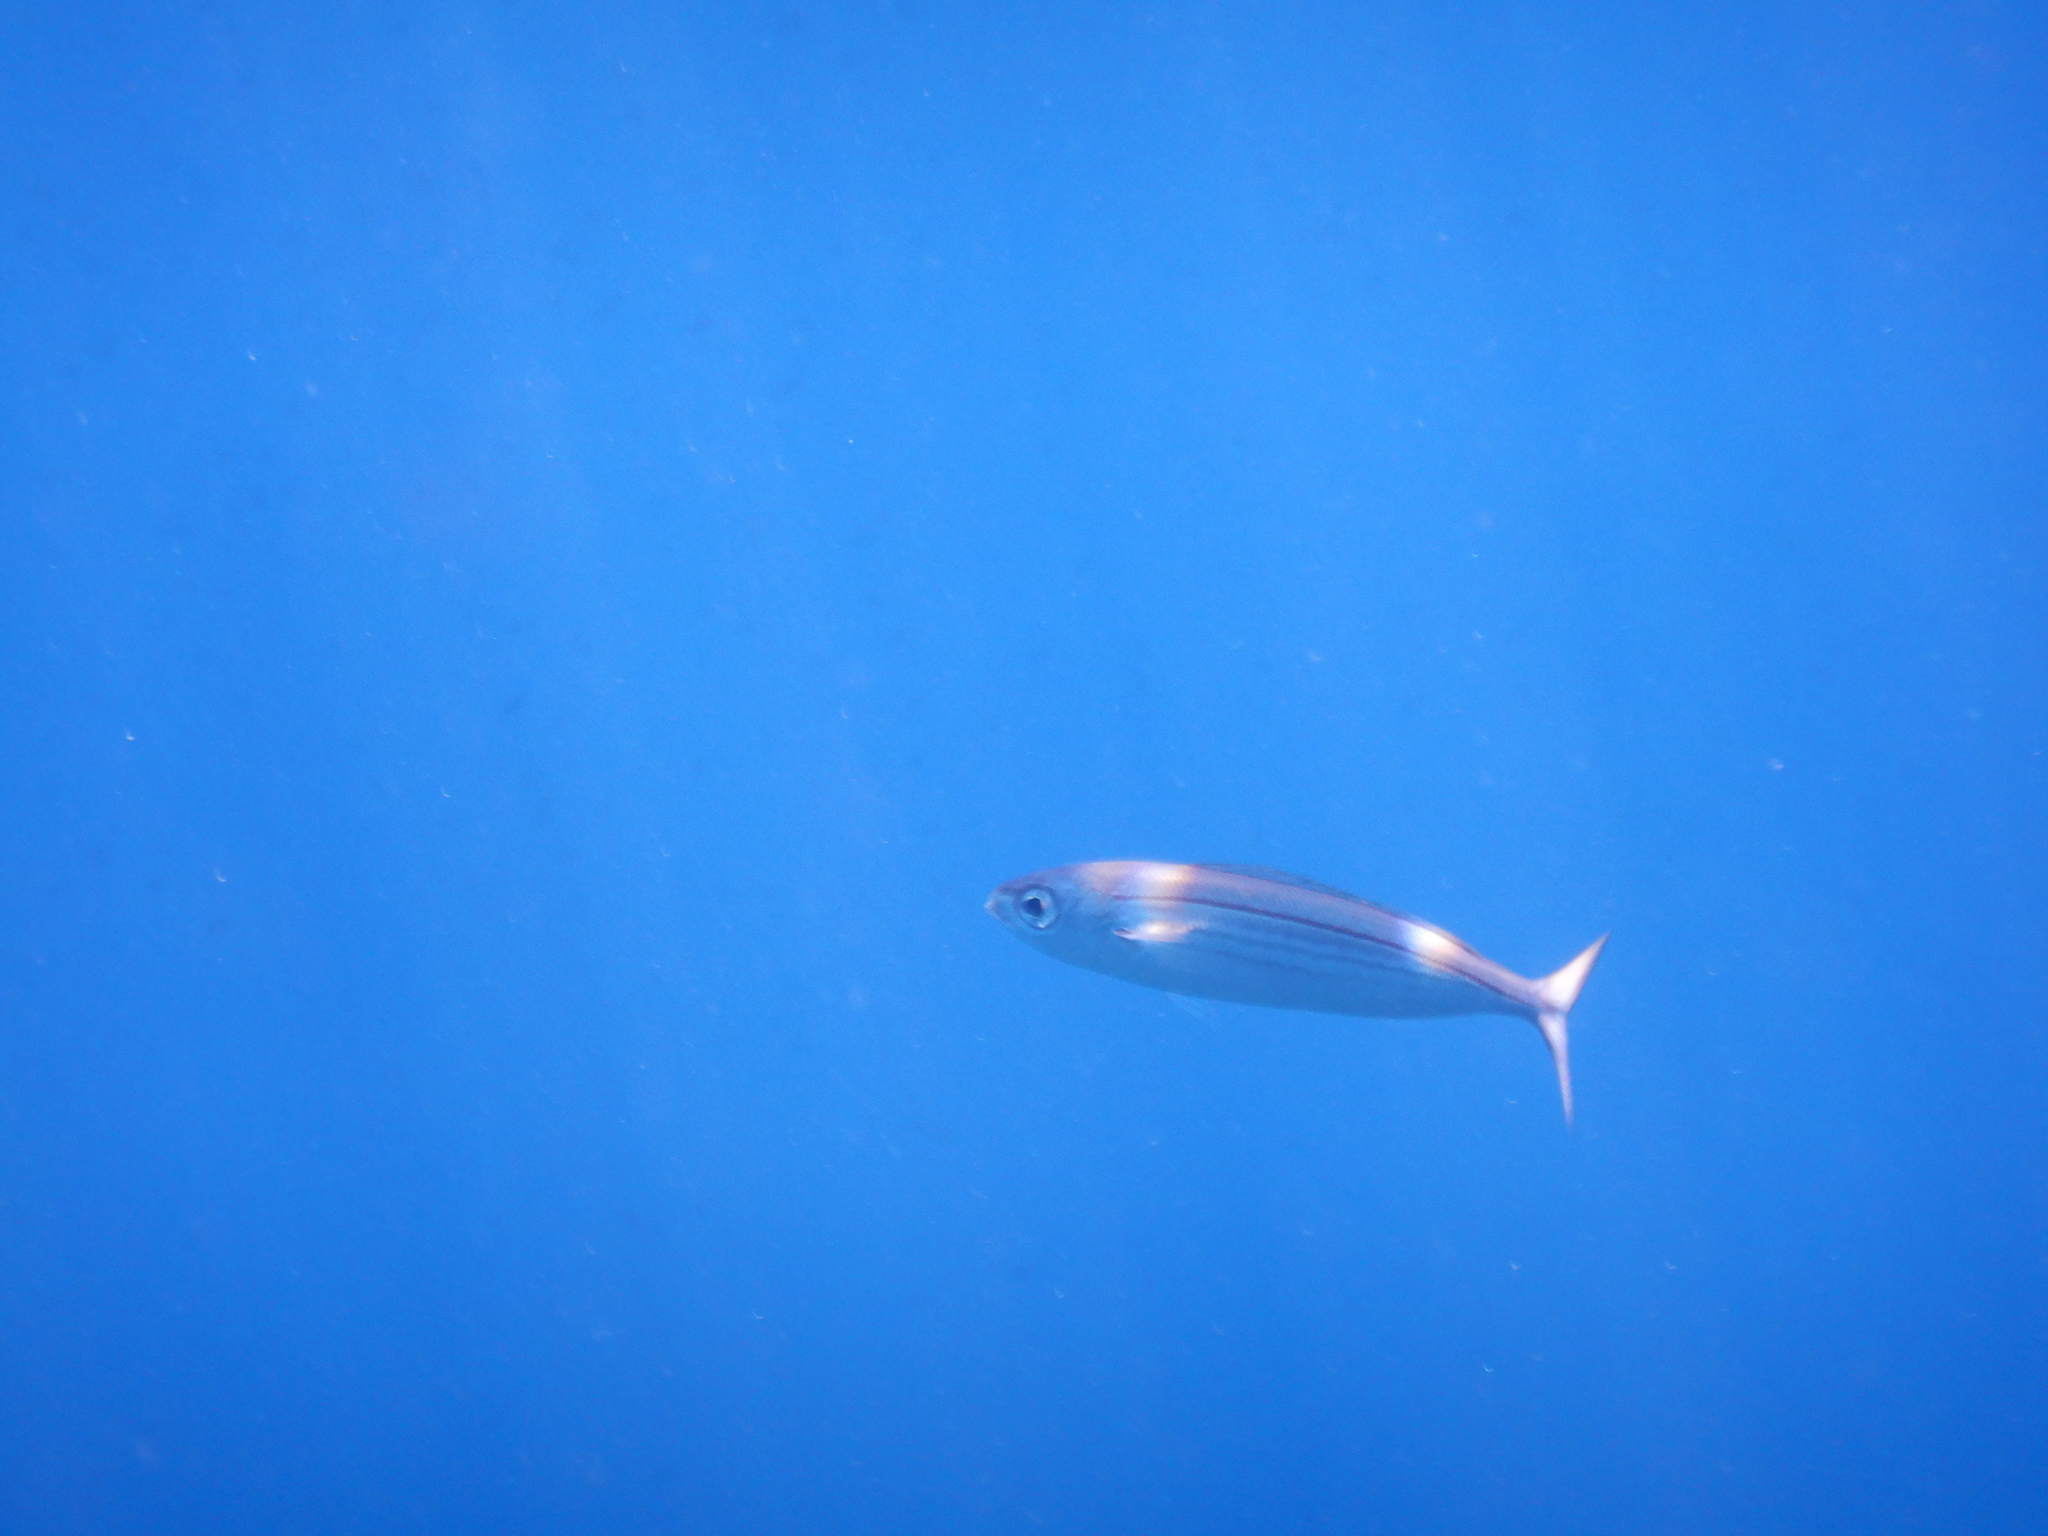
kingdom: Animalia
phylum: Chordata
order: Perciformes
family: Sparidae
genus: Boops
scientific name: Boops boops
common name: Bogue
